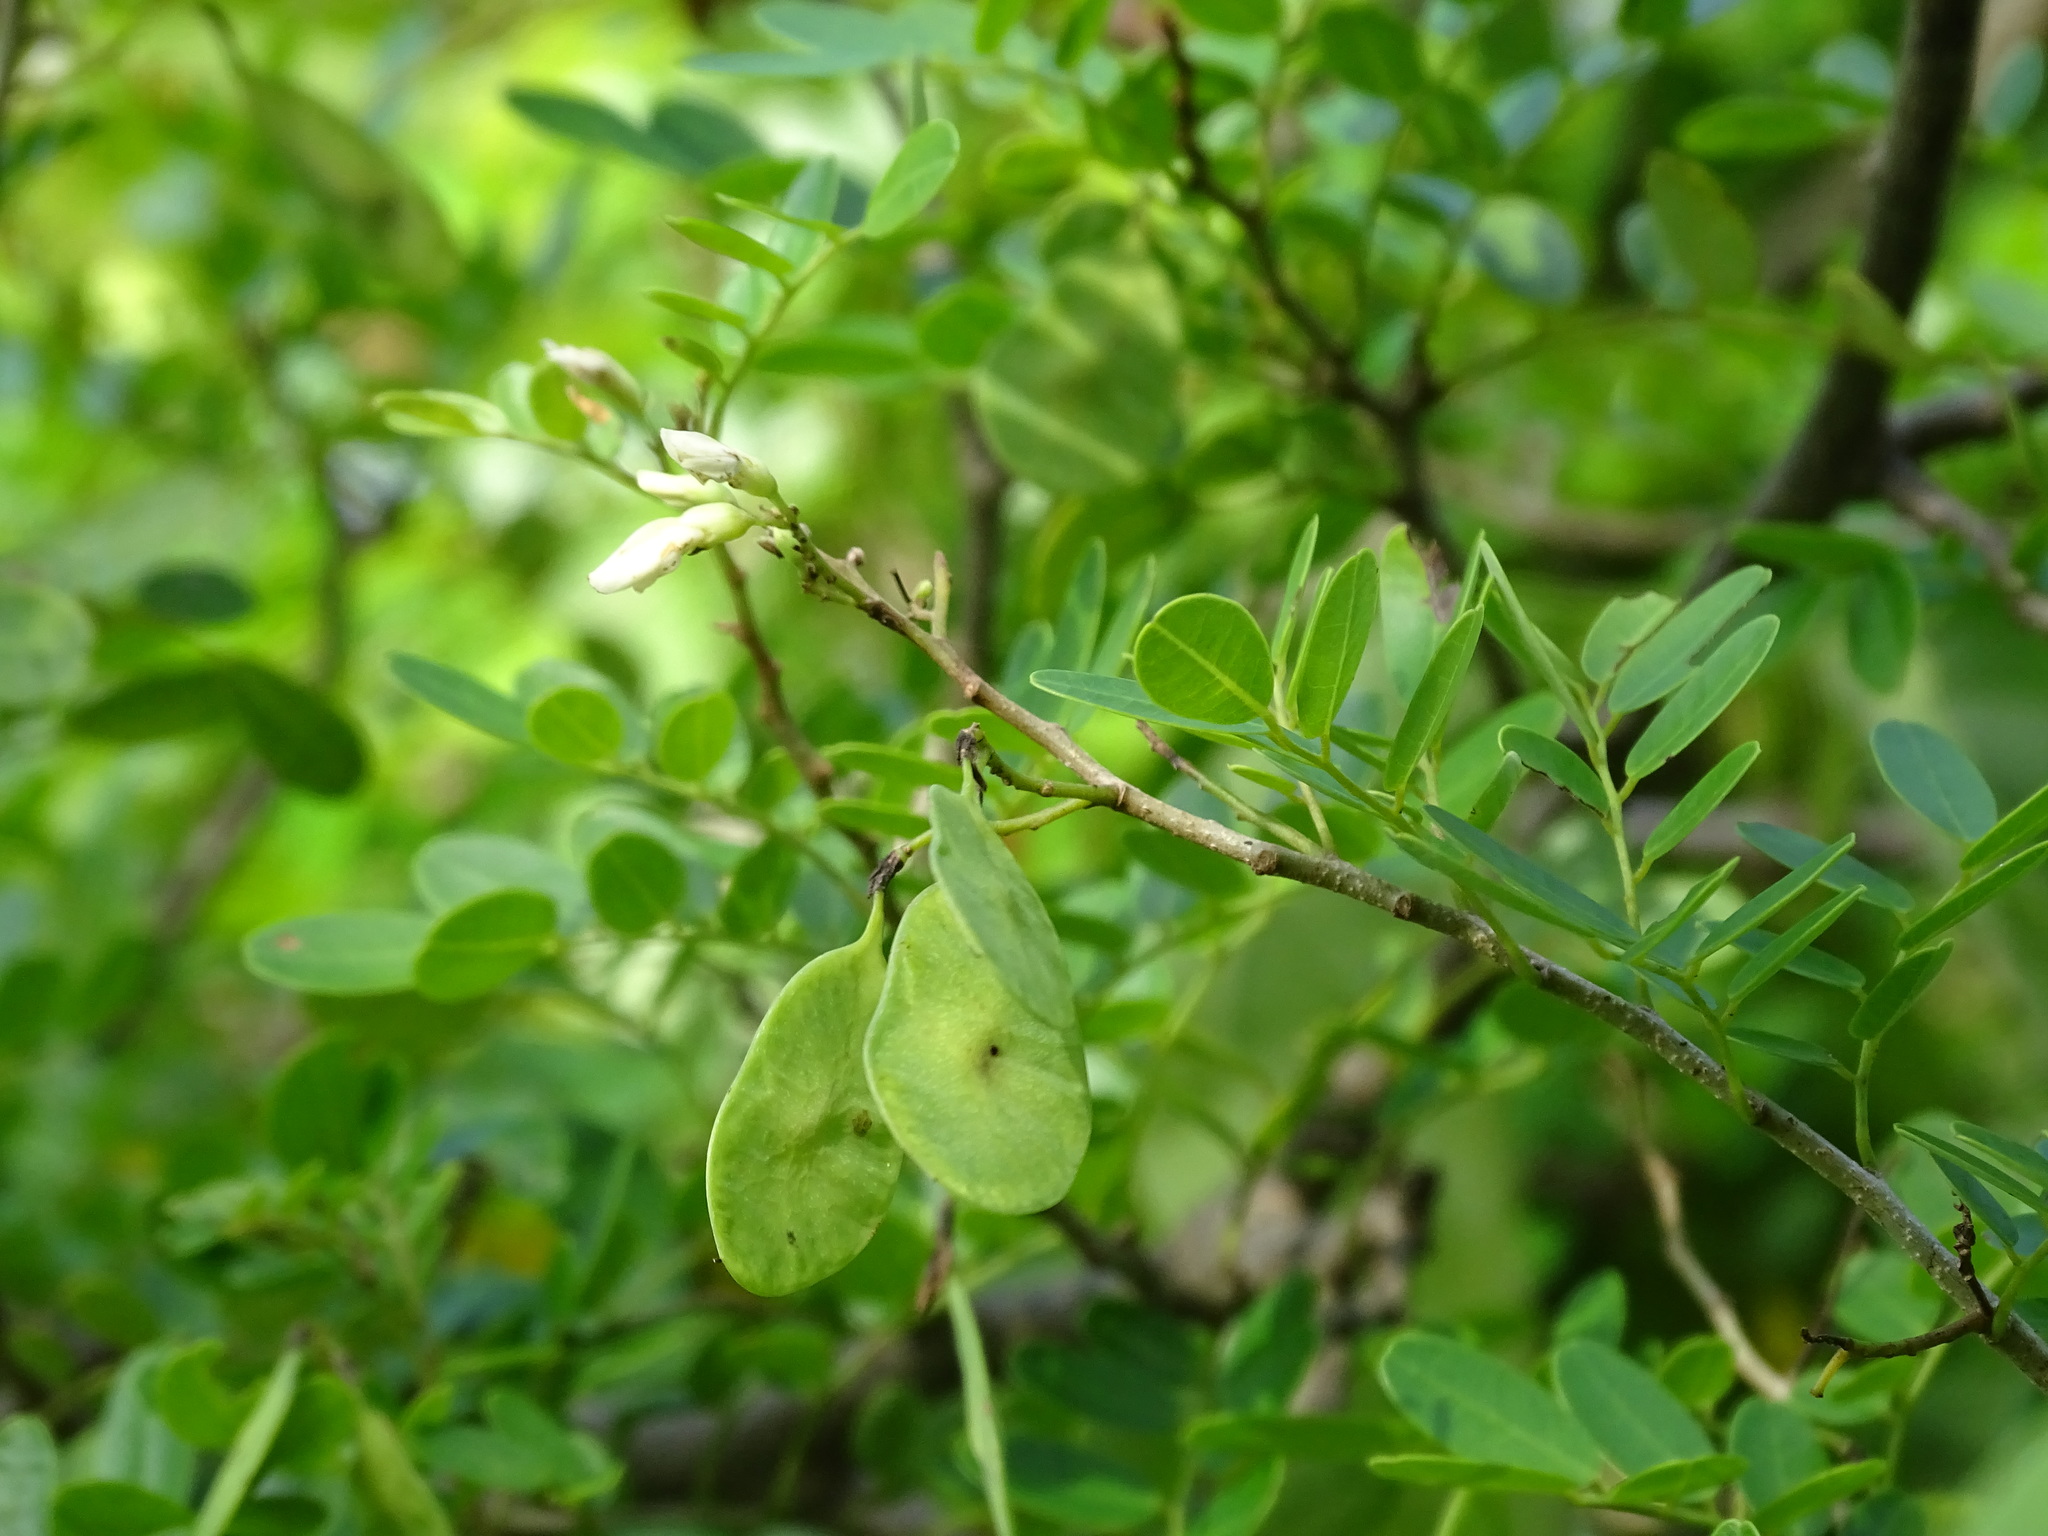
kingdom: Plantae
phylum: Tracheophyta
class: Magnoliopsida
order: Fabales
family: Fabaceae
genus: Dalbergia
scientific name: Dalbergia glabra
